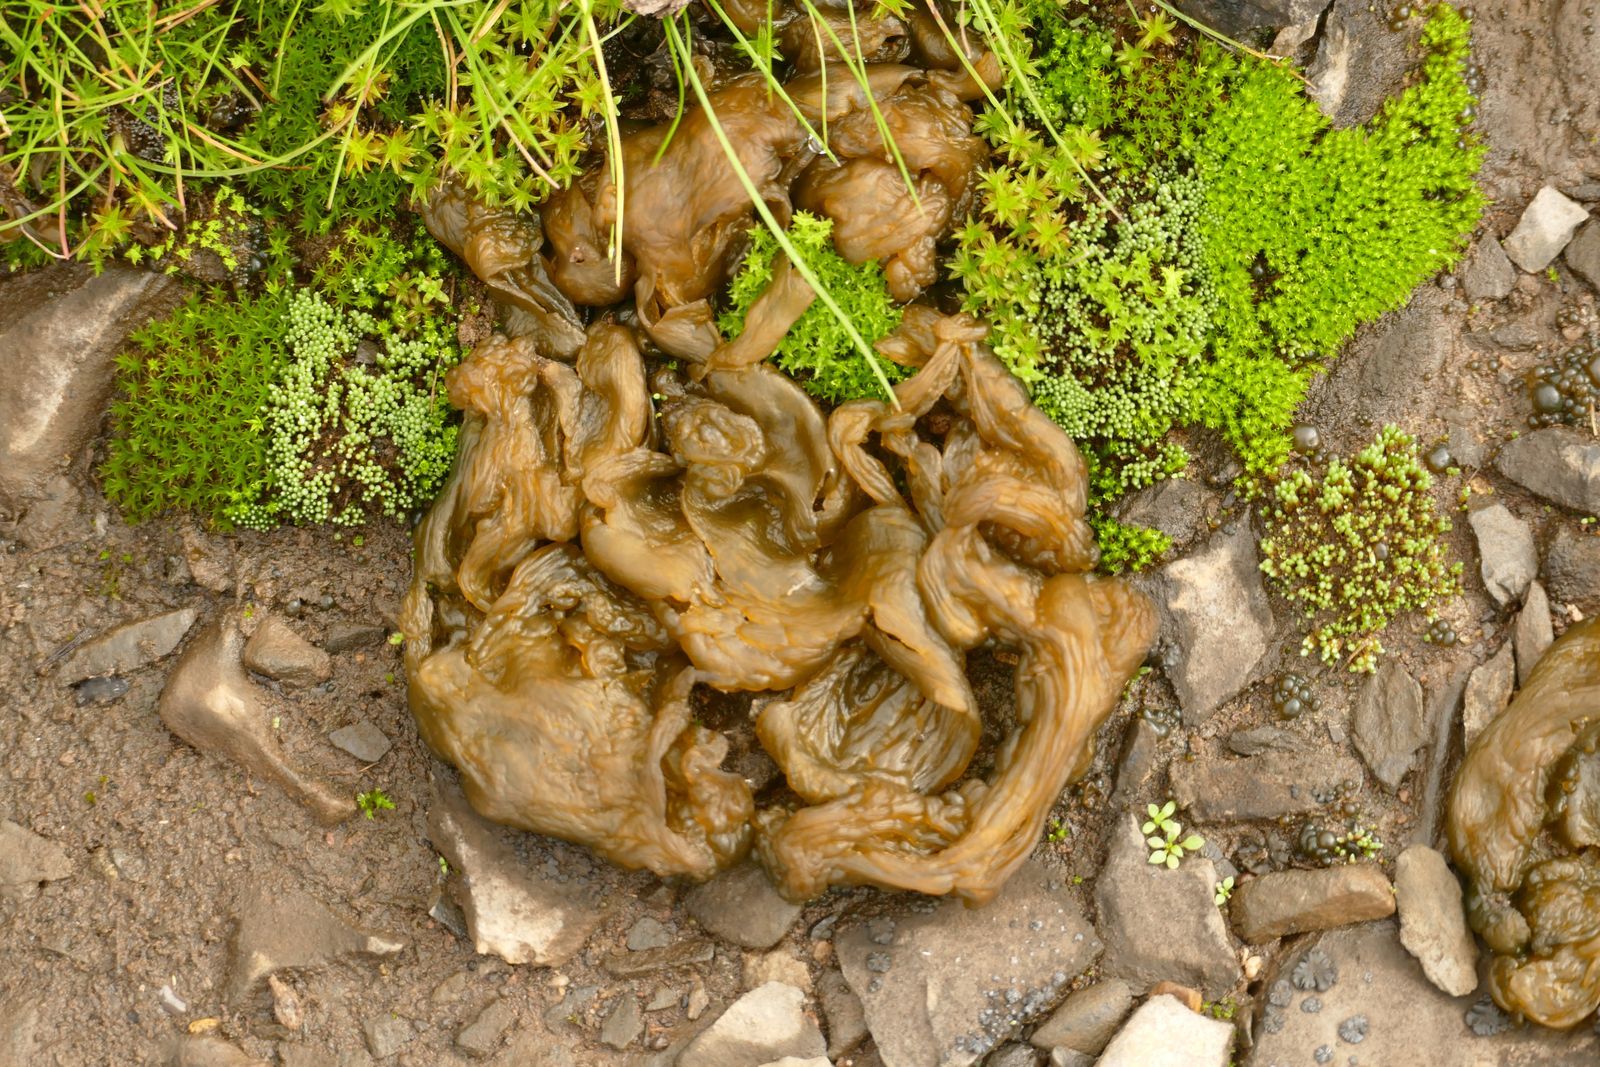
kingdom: Bacteria
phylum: Cyanobacteria
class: Cyanobacteriia
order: Cyanobacteriales
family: Nostocaceae
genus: Nostoc
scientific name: Nostoc commune
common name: Star jelly
